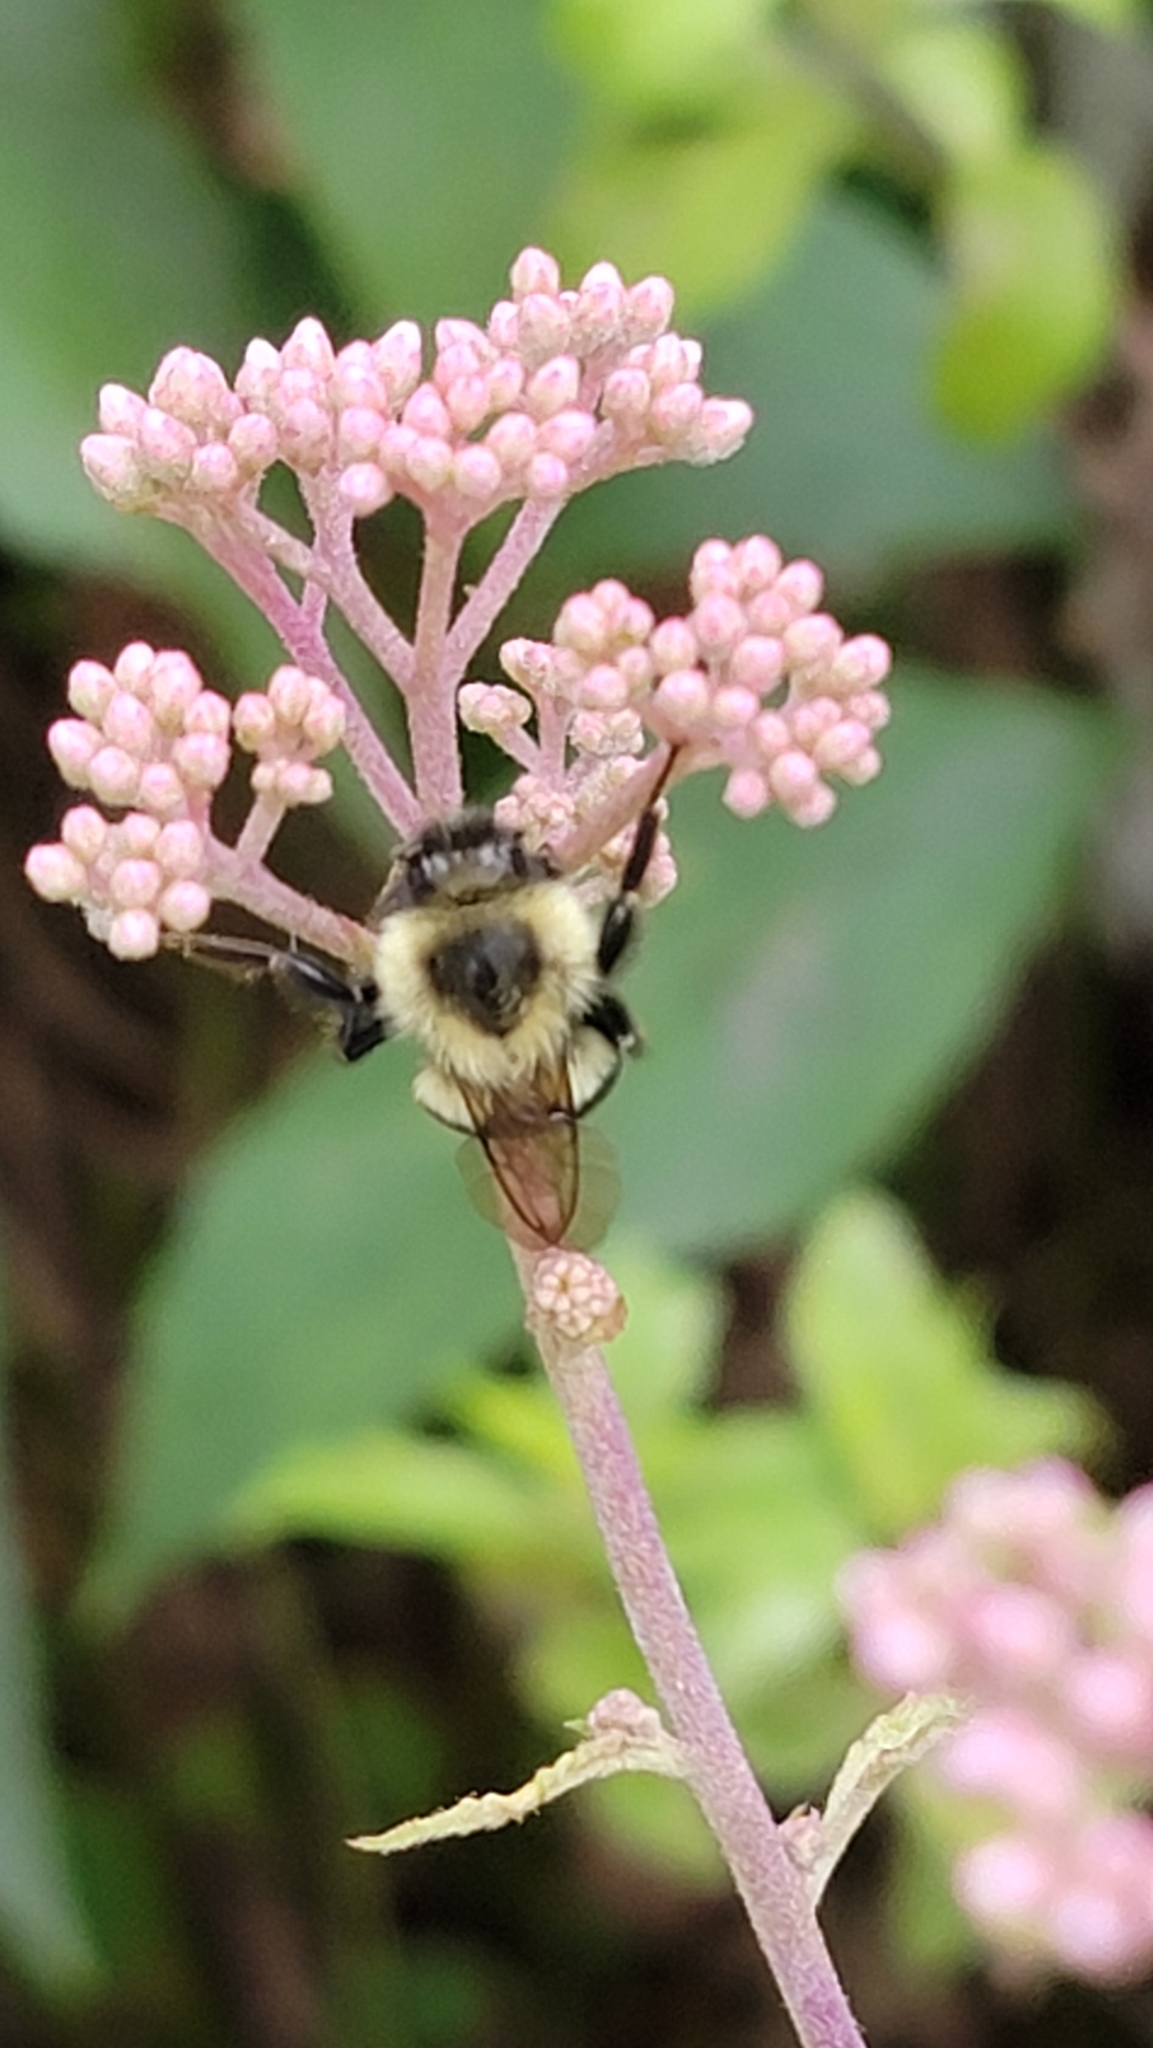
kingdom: Animalia
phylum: Arthropoda
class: Insecta
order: Hymenoptera
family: Apidae
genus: Bombus
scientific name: Bombus impatiens
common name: Common eastern bumble bee
